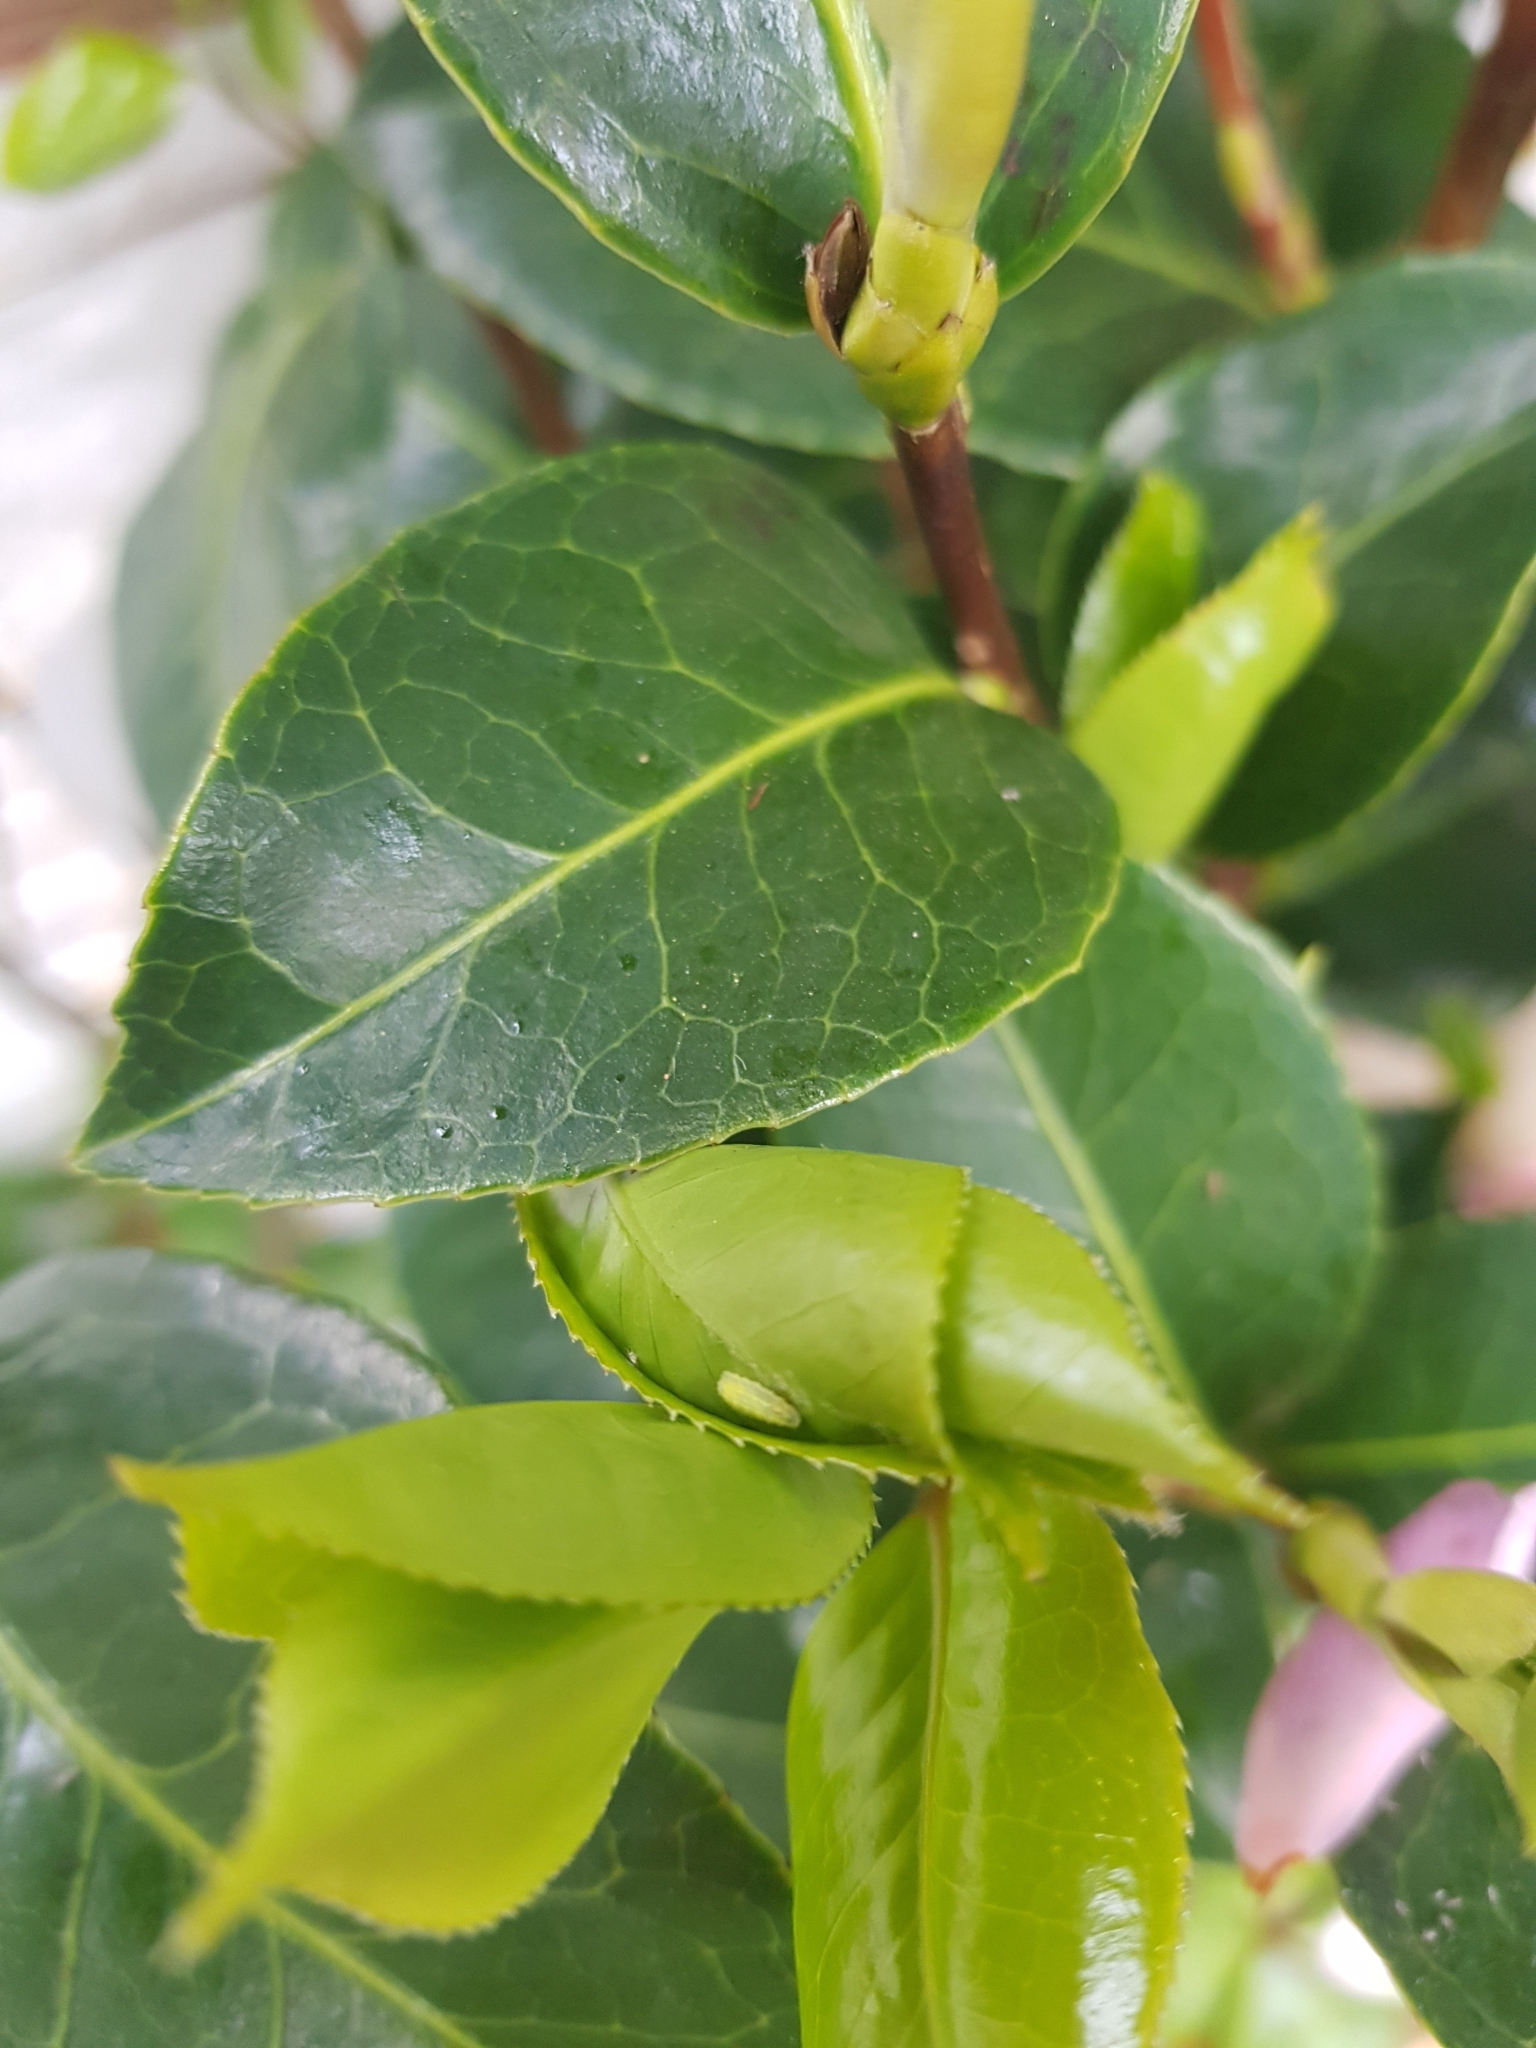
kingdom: Animalia
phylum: Arthropoda
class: Insecta
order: Diptera
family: Syrphidae
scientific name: Syrphidae
